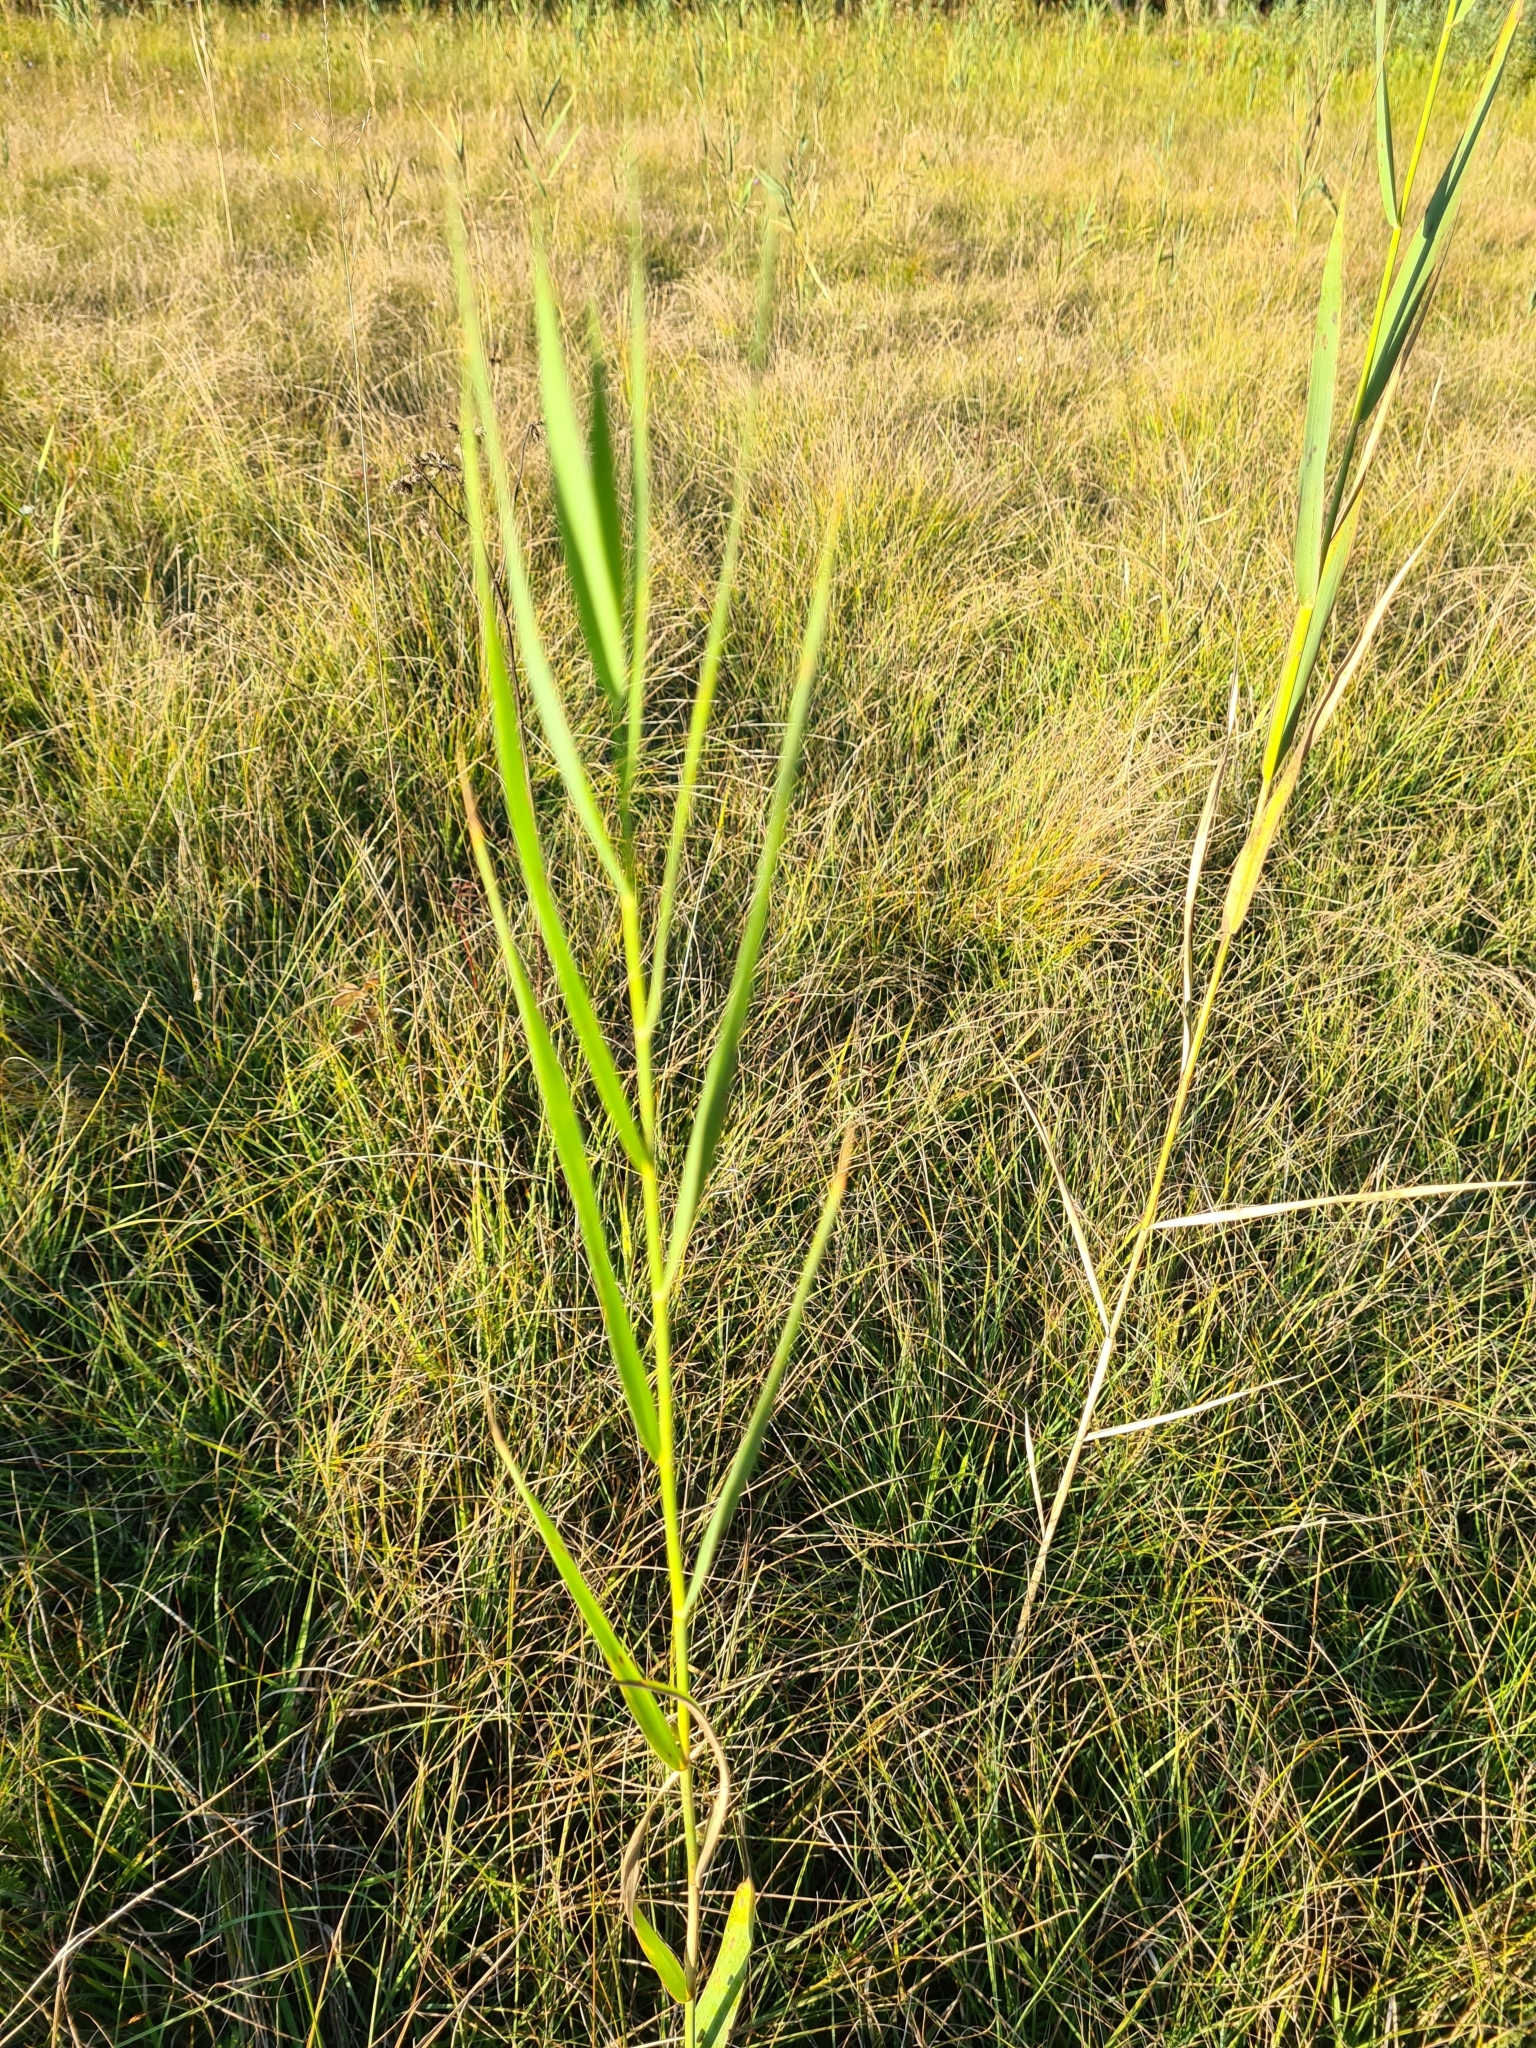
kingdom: Plantae
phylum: Tracheophyta
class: Liliopsida
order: Poales
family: Poaceae
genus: Phragmites
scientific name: Phragmites australis
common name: Common reed
